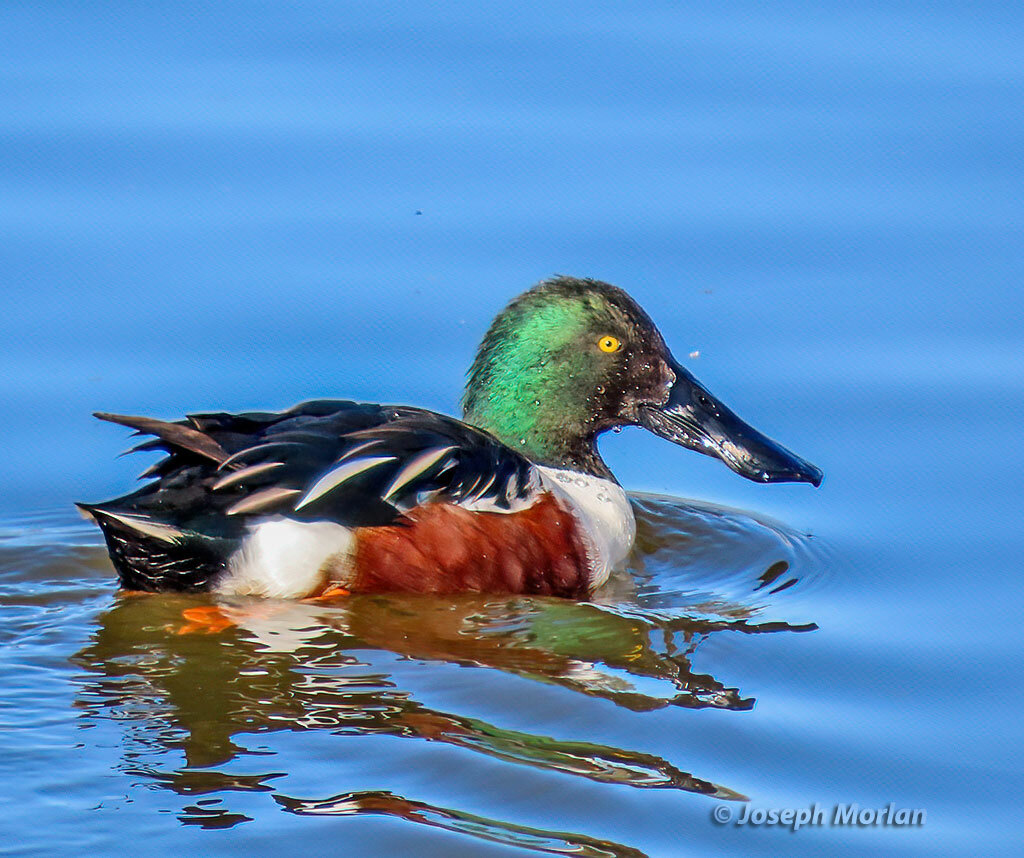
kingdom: Animalia
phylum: Chordata
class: Aves
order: Anseriformes
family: Anatidae
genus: Spatula
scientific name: Spatula clypeata
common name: Northern shoveler
